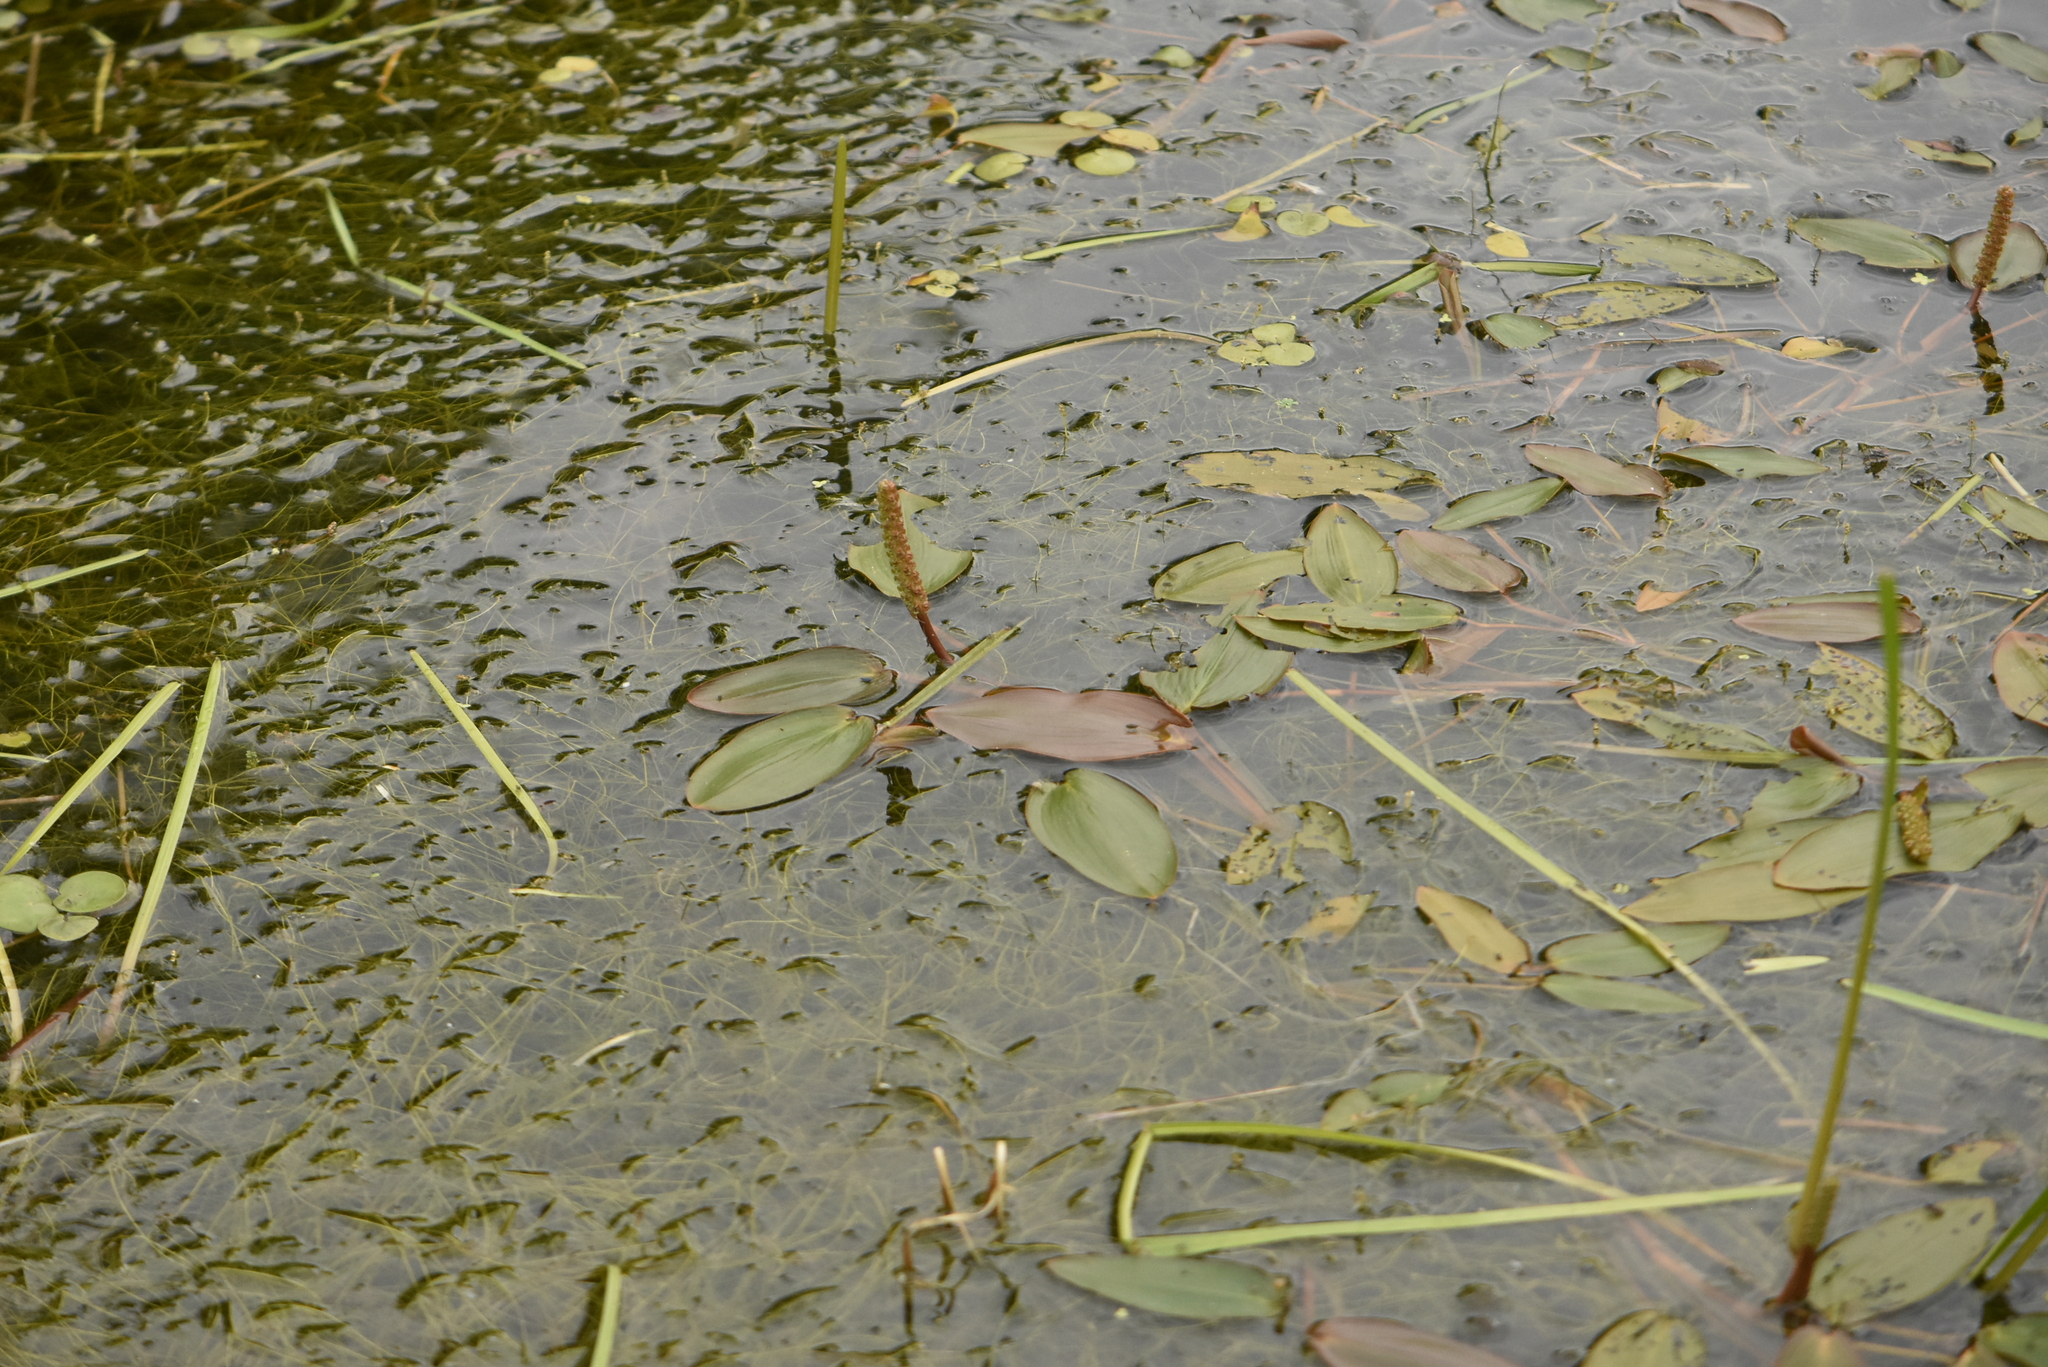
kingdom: Plantae
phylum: Tracheophyta
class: Liliopsida
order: Alismatales
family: Potamogetonaceae
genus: Potamogeton
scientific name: Potamogeton natans
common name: Broad-leaved pondweed
